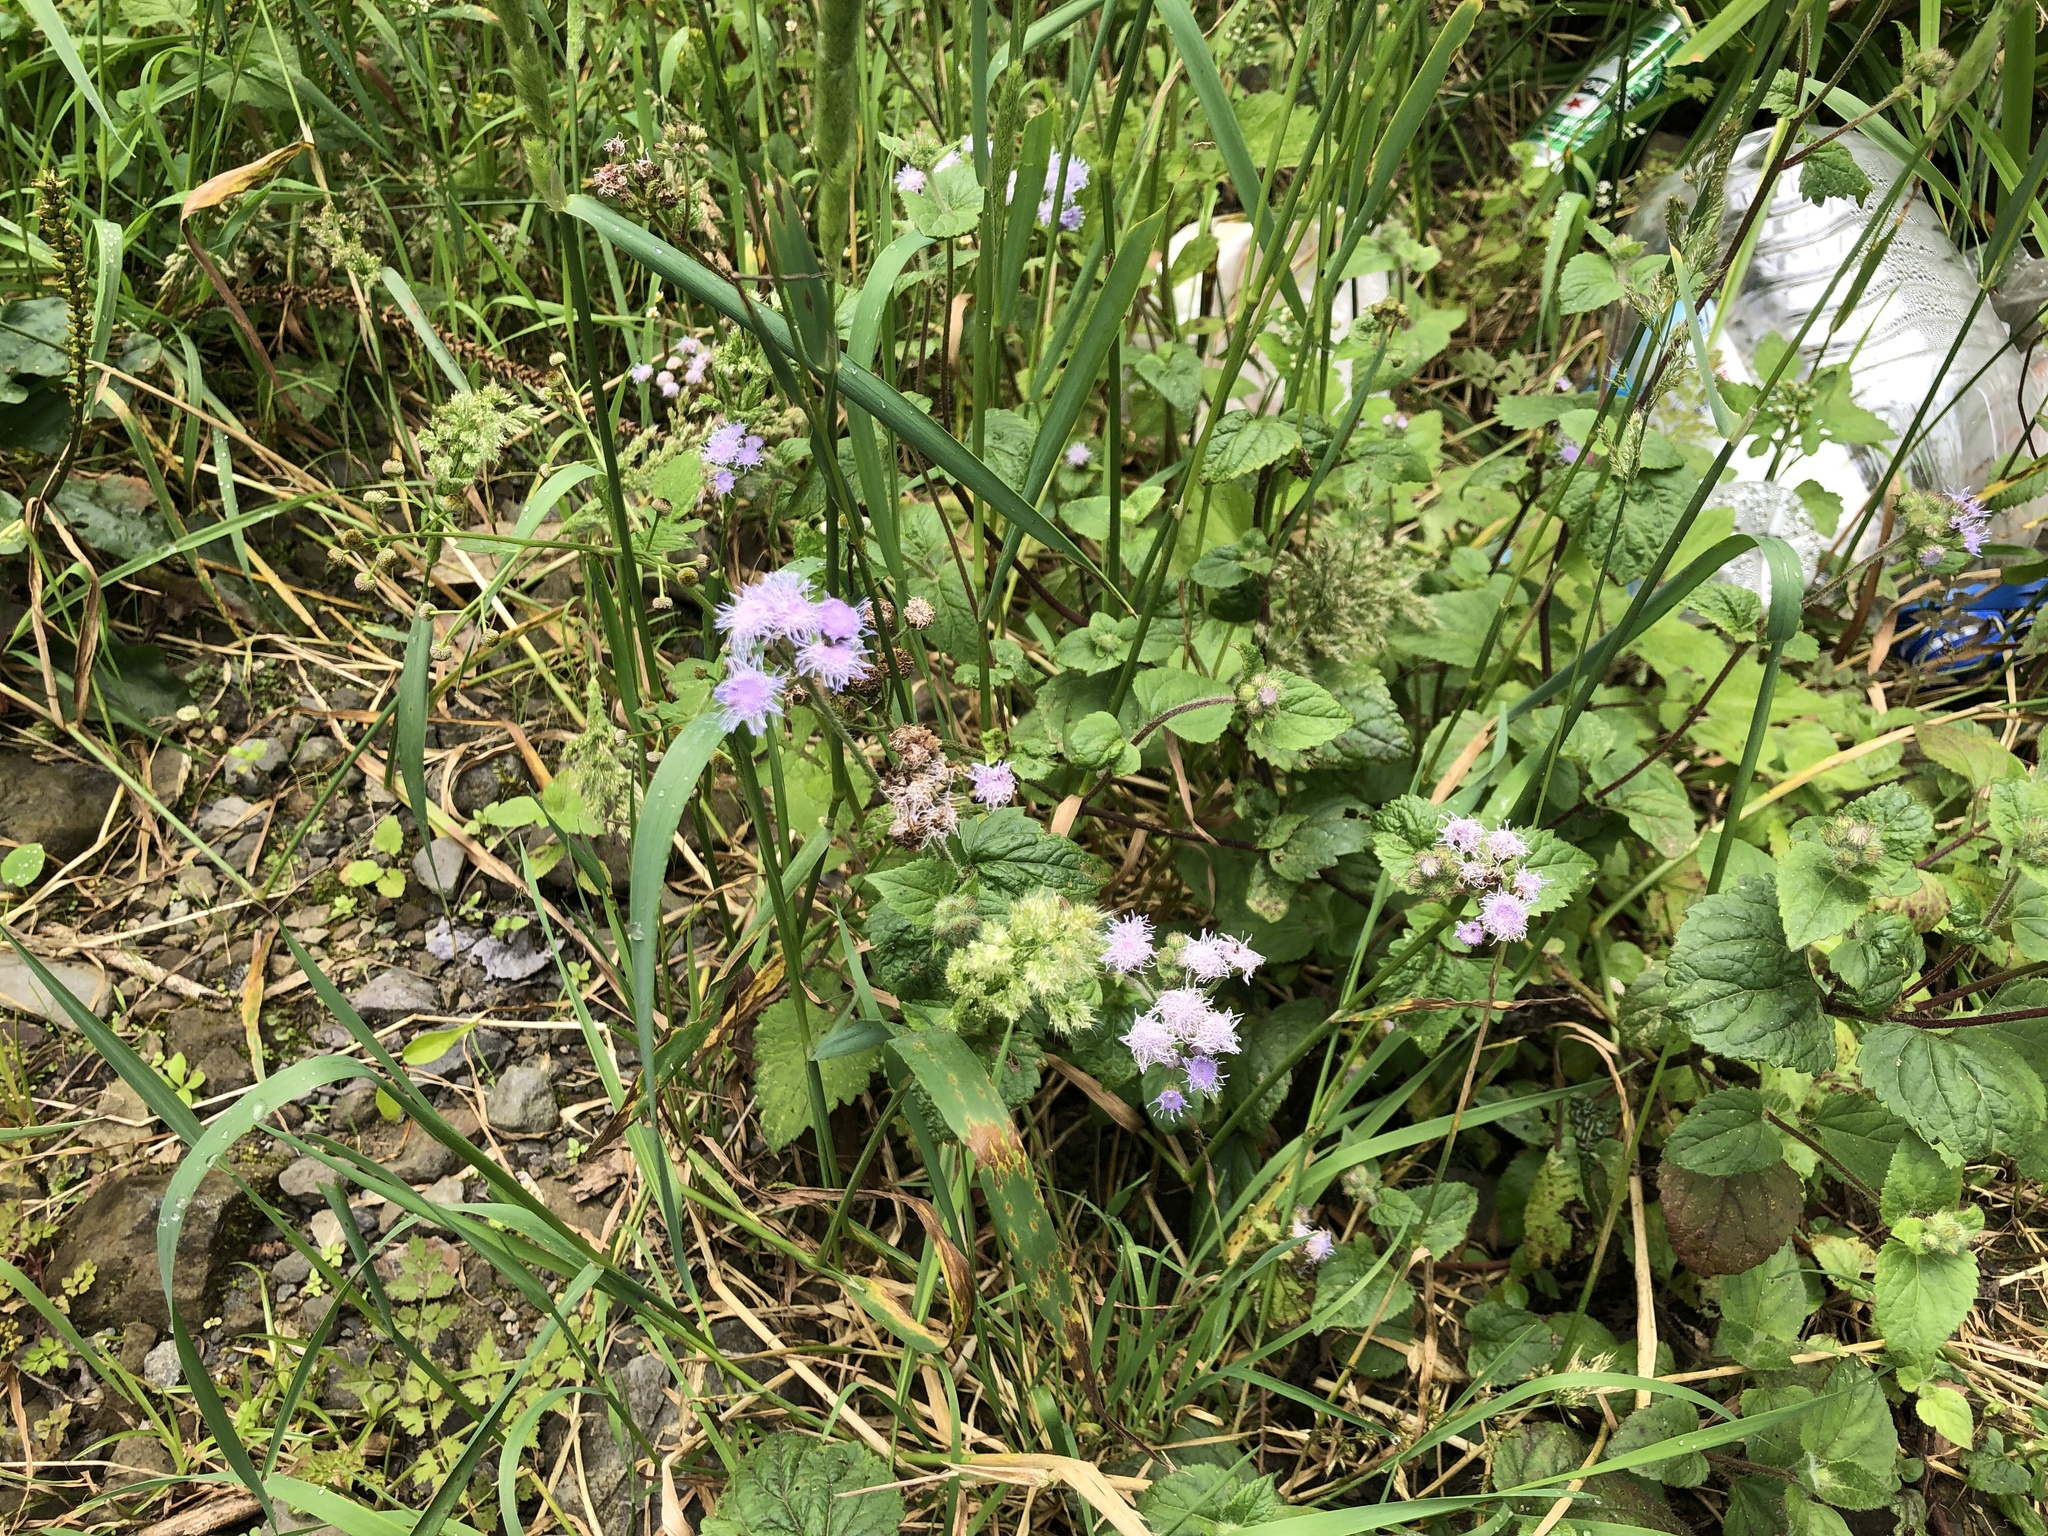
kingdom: Plantae
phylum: Tracheophyta
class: Magnoliopsida
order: Asterales
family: Asteraceae
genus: Ageratum
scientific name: Ageratum houstonianum
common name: Bluemink
